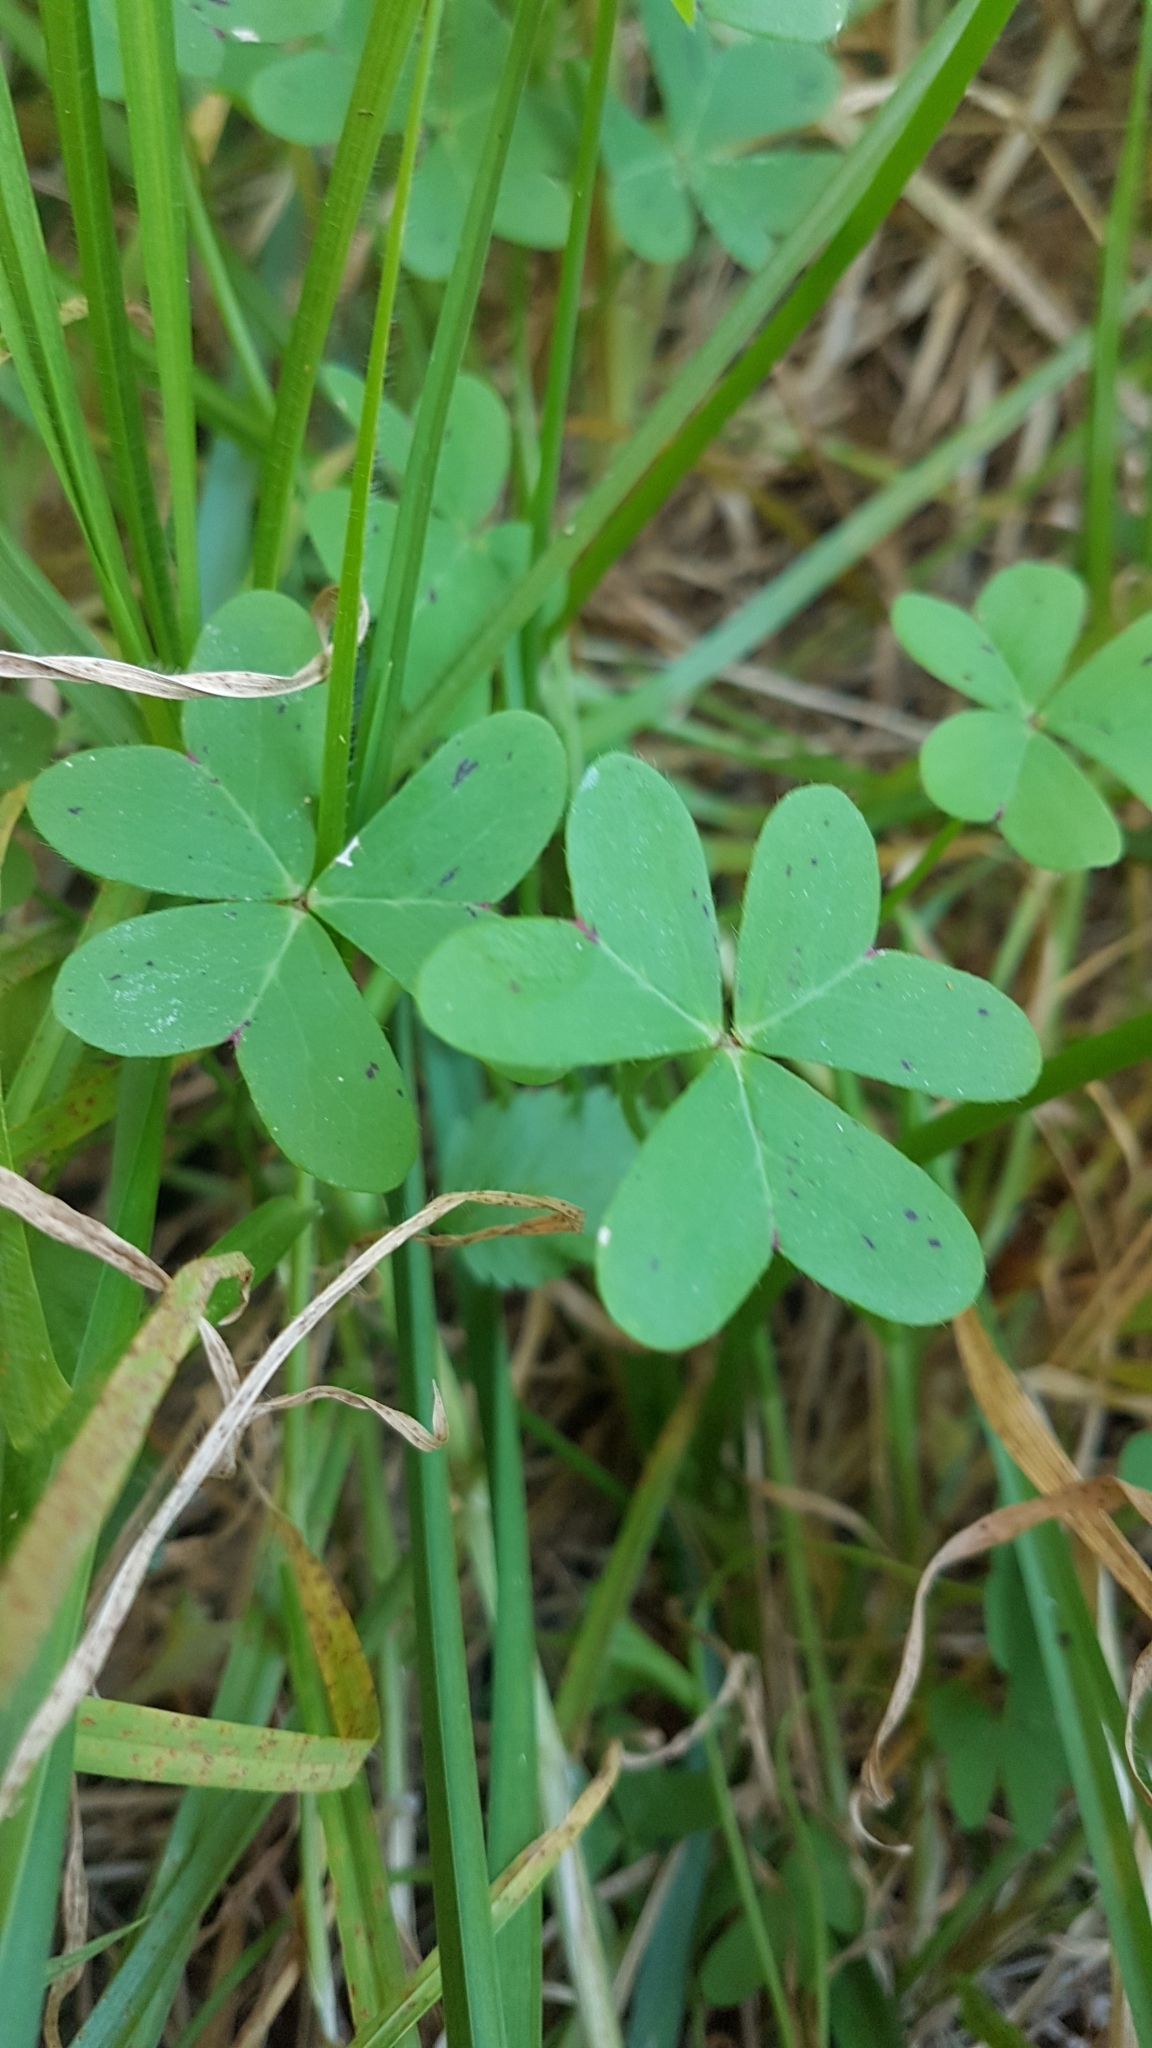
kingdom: Plantae
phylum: Tracheophyta
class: Magnoliopsida
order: Oxalidales
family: Oxalidaceae
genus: Oxalis
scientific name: Oxalis pes-caprae
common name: Bermuda-buttercup
